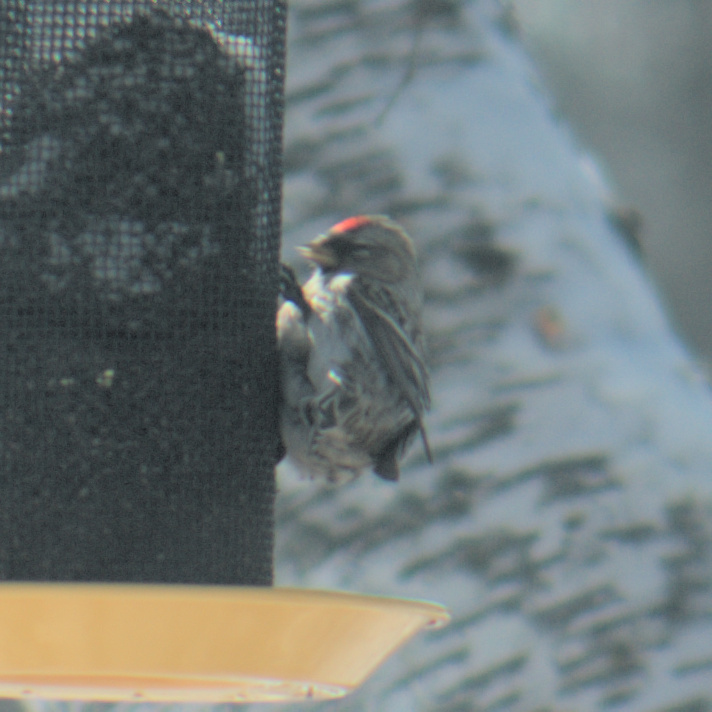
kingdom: Animalia
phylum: Chordata
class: Aves
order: Passeriformes
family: Fringillidae
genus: Acanthis
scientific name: Acanthis flammea
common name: Common redpoll
